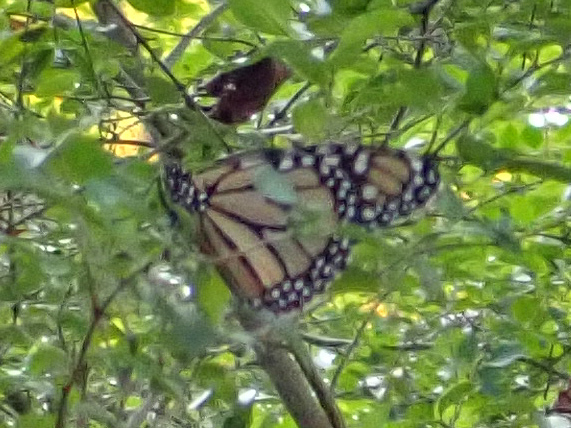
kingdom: Animalia
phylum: Arthropoda
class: Insecta
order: Lepidoptera
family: Nymphalidae
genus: Danaus
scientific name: Danaus plexippus
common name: Monarch
